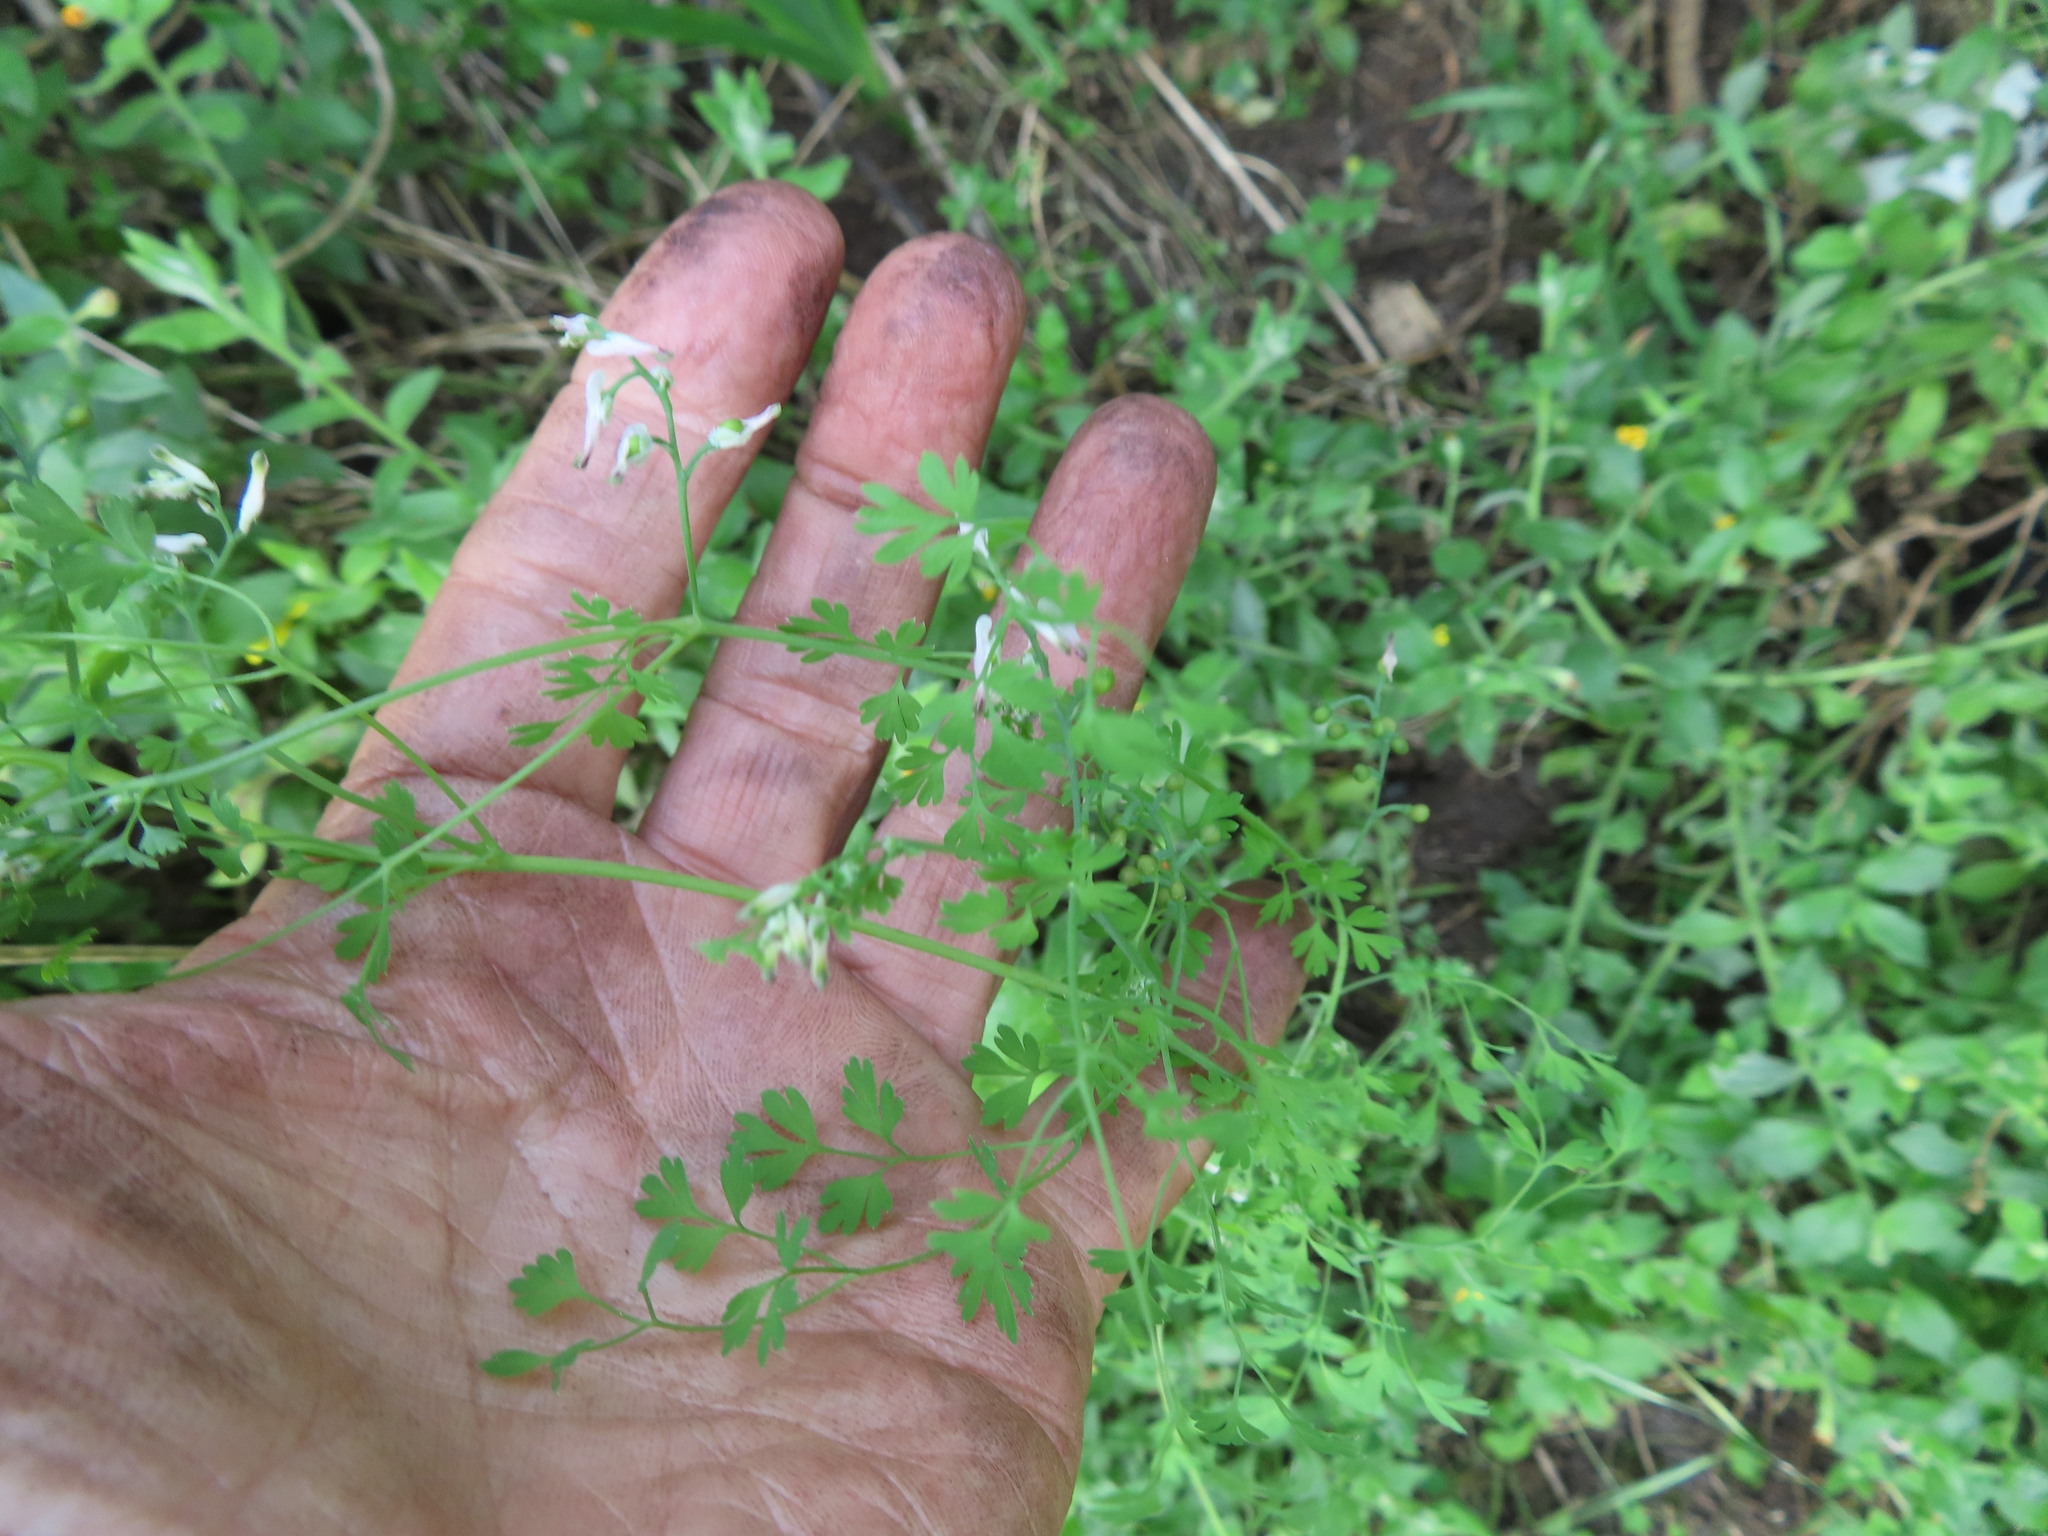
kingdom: Plantae
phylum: Tracheophyta
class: Magnoliopsida
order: Ranunculales
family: Papaveraceae
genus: Fumaria
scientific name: Fumaria capreolata
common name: White ramping-fumitory
